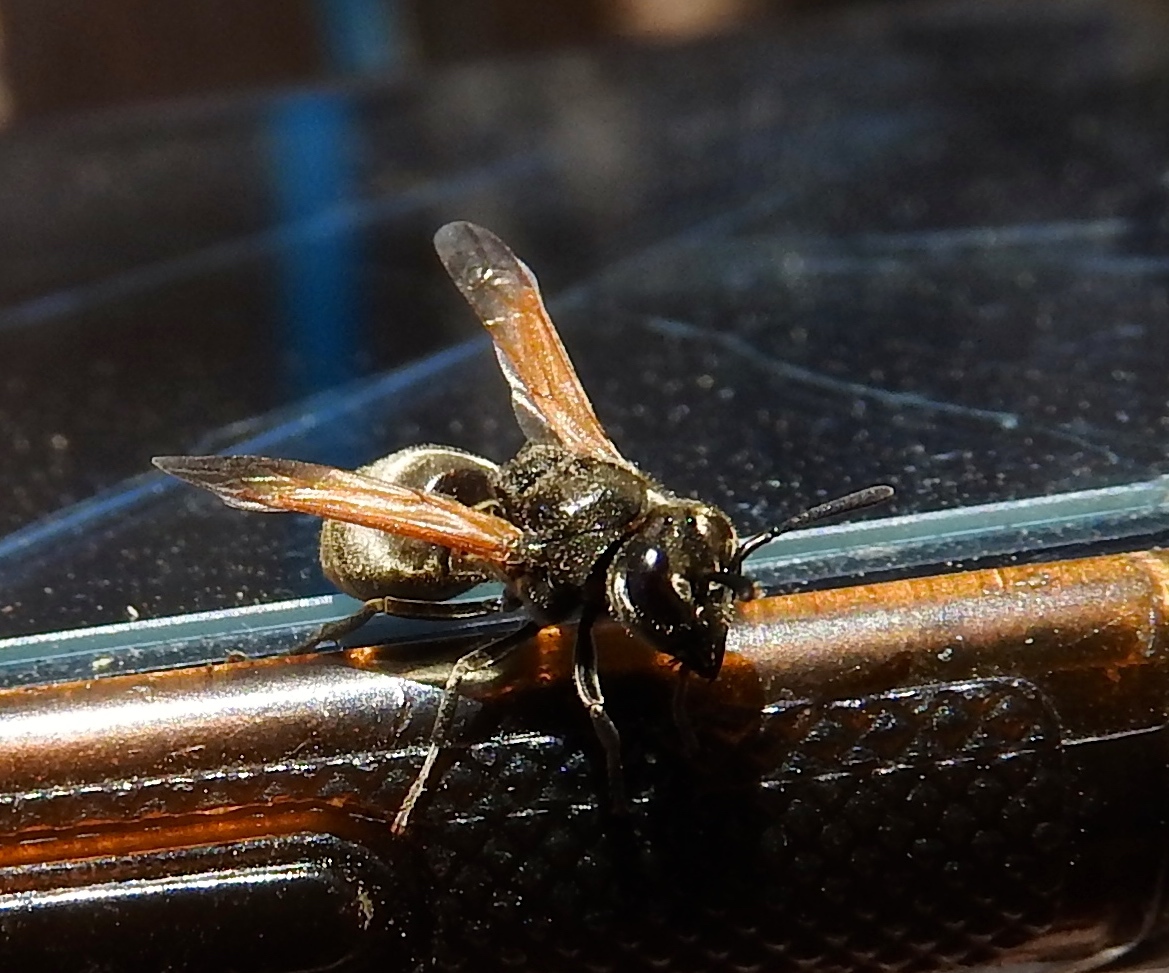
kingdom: Animalia
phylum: Arthropoda
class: Insecta
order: Hymenoptera
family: Vespidae
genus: Brachygastra
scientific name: Brachygastra mellifica
